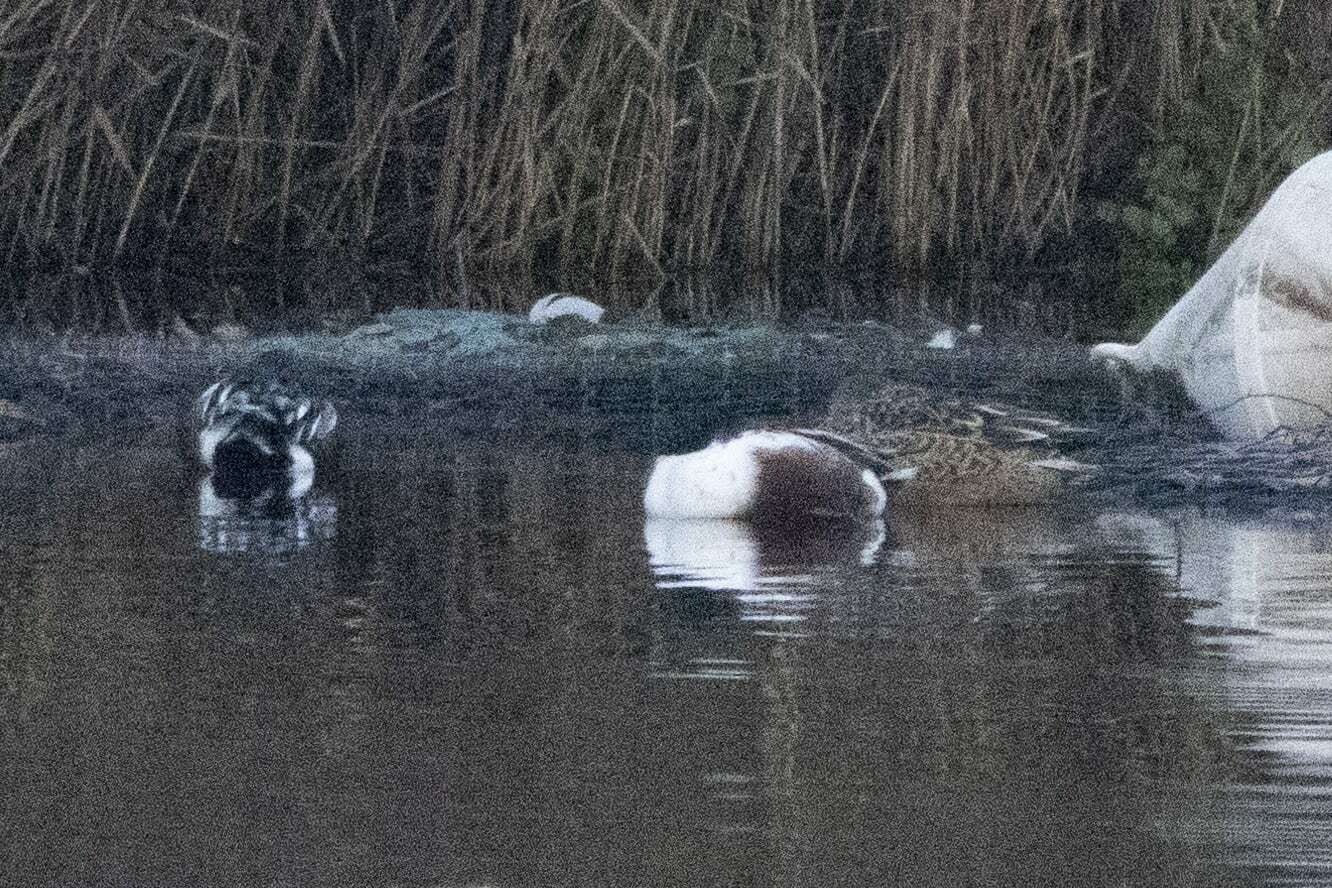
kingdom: Animalia
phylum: Chordata
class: Aves
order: Anseriformes
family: Anatidae
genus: Spatula
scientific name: Spatula clypeata
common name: Northern shoveler
